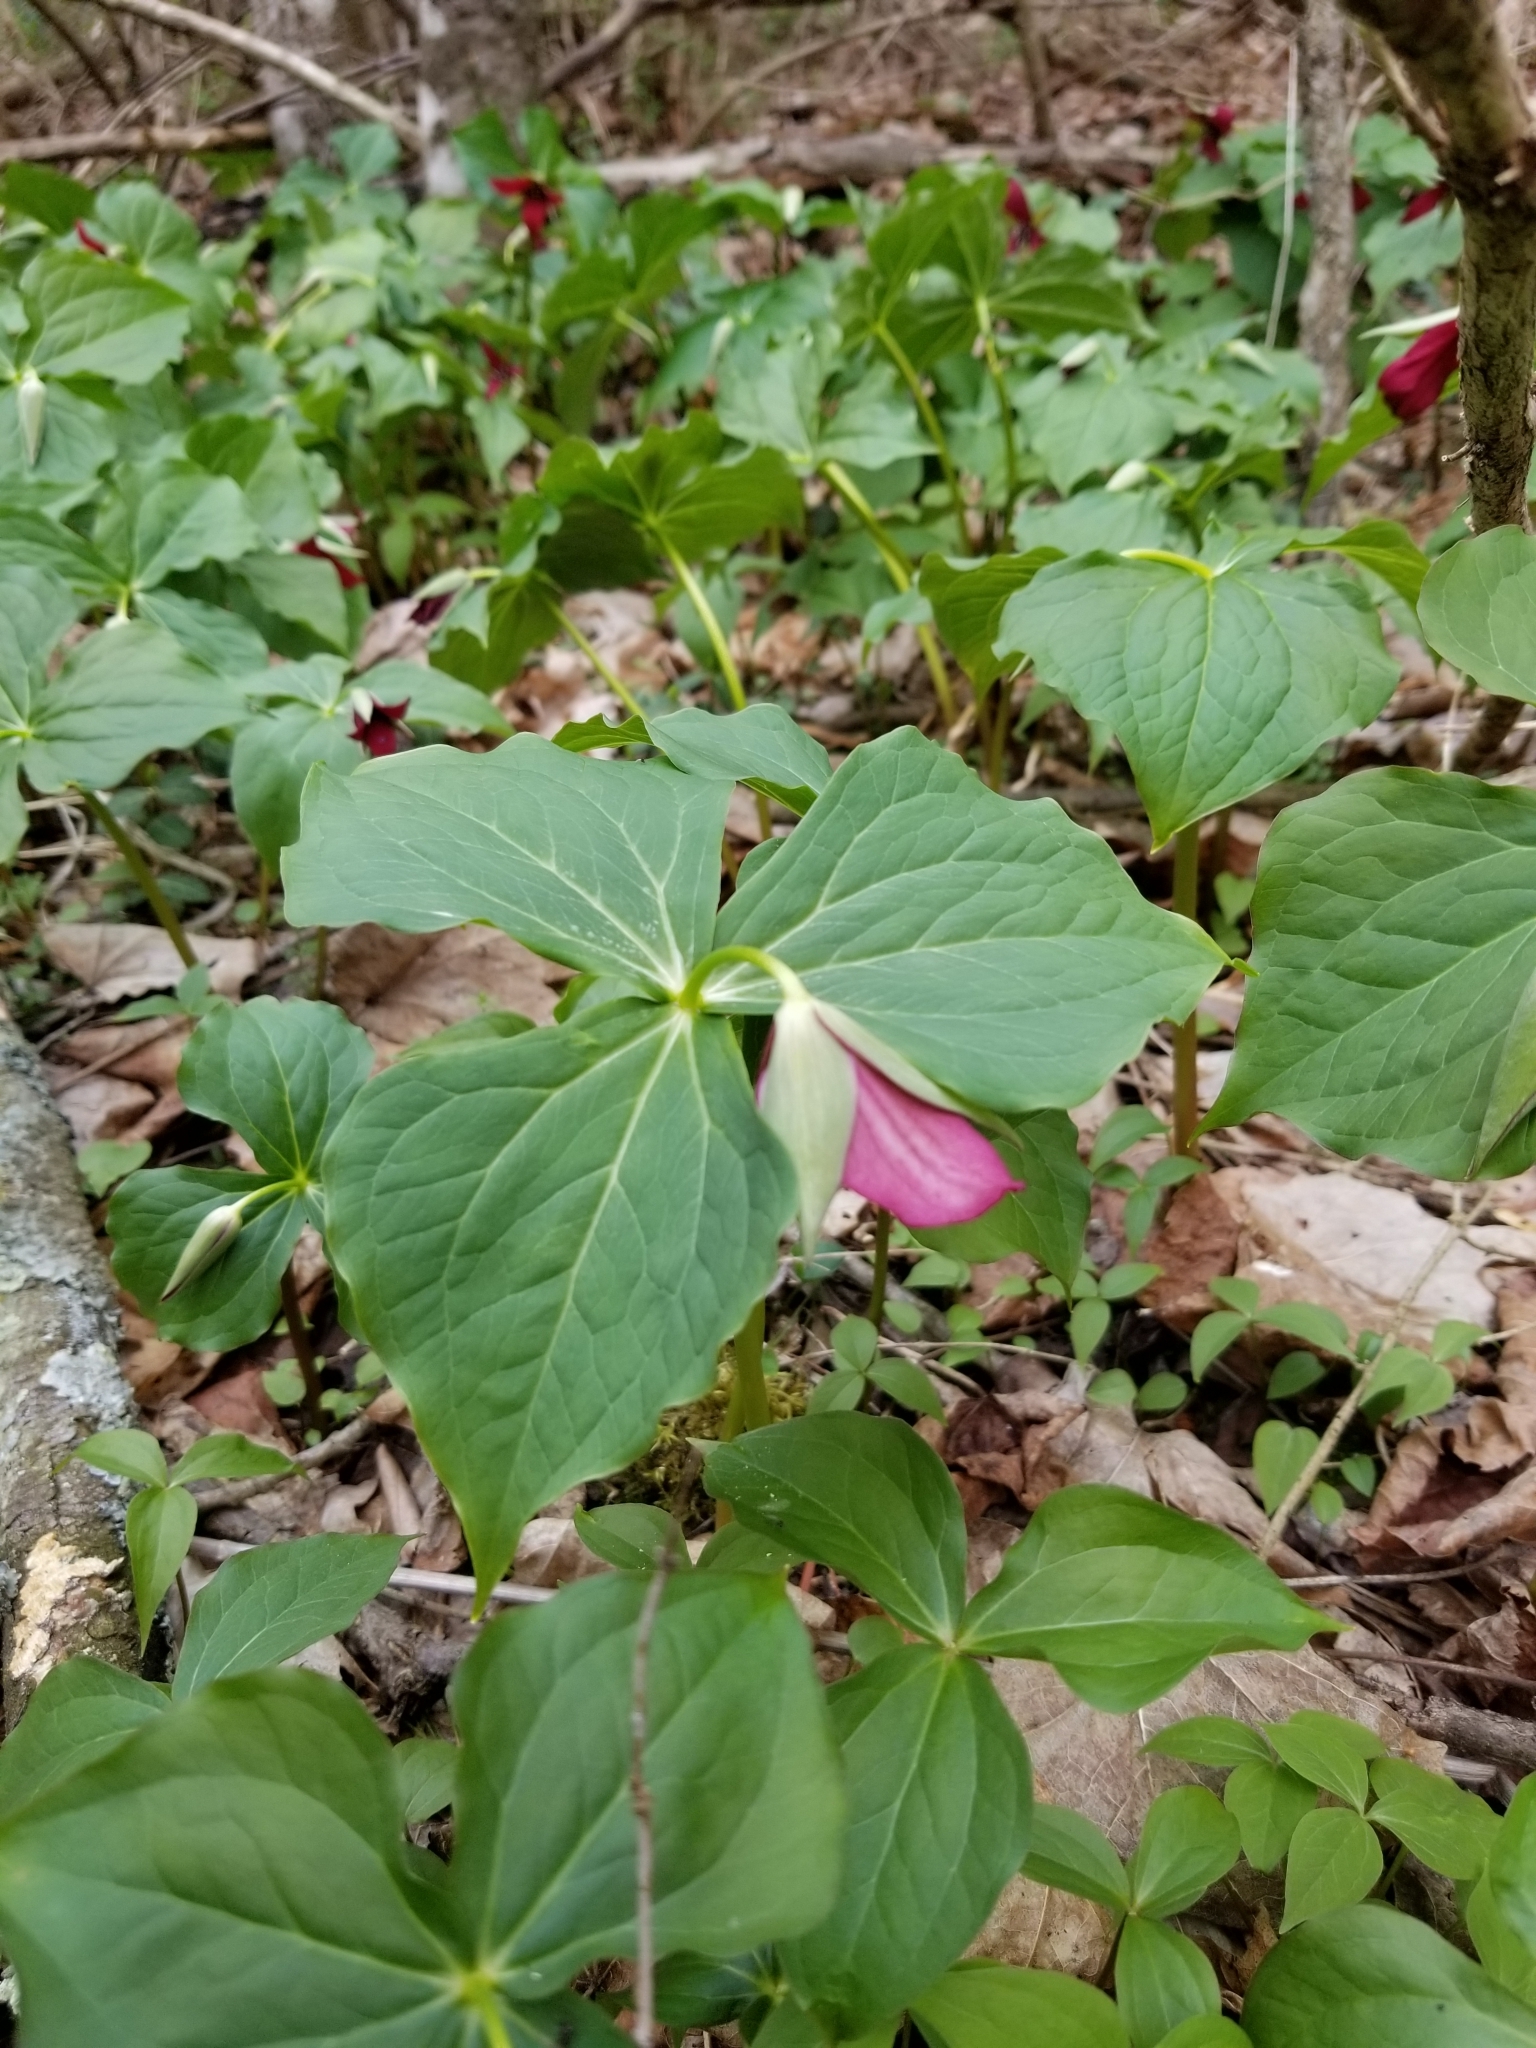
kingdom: Plantae
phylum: Tracheophyta
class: Liliopsida
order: Liliales
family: Melanthiaceae
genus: Trillium
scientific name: Trillium erectum
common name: Purple trillium
